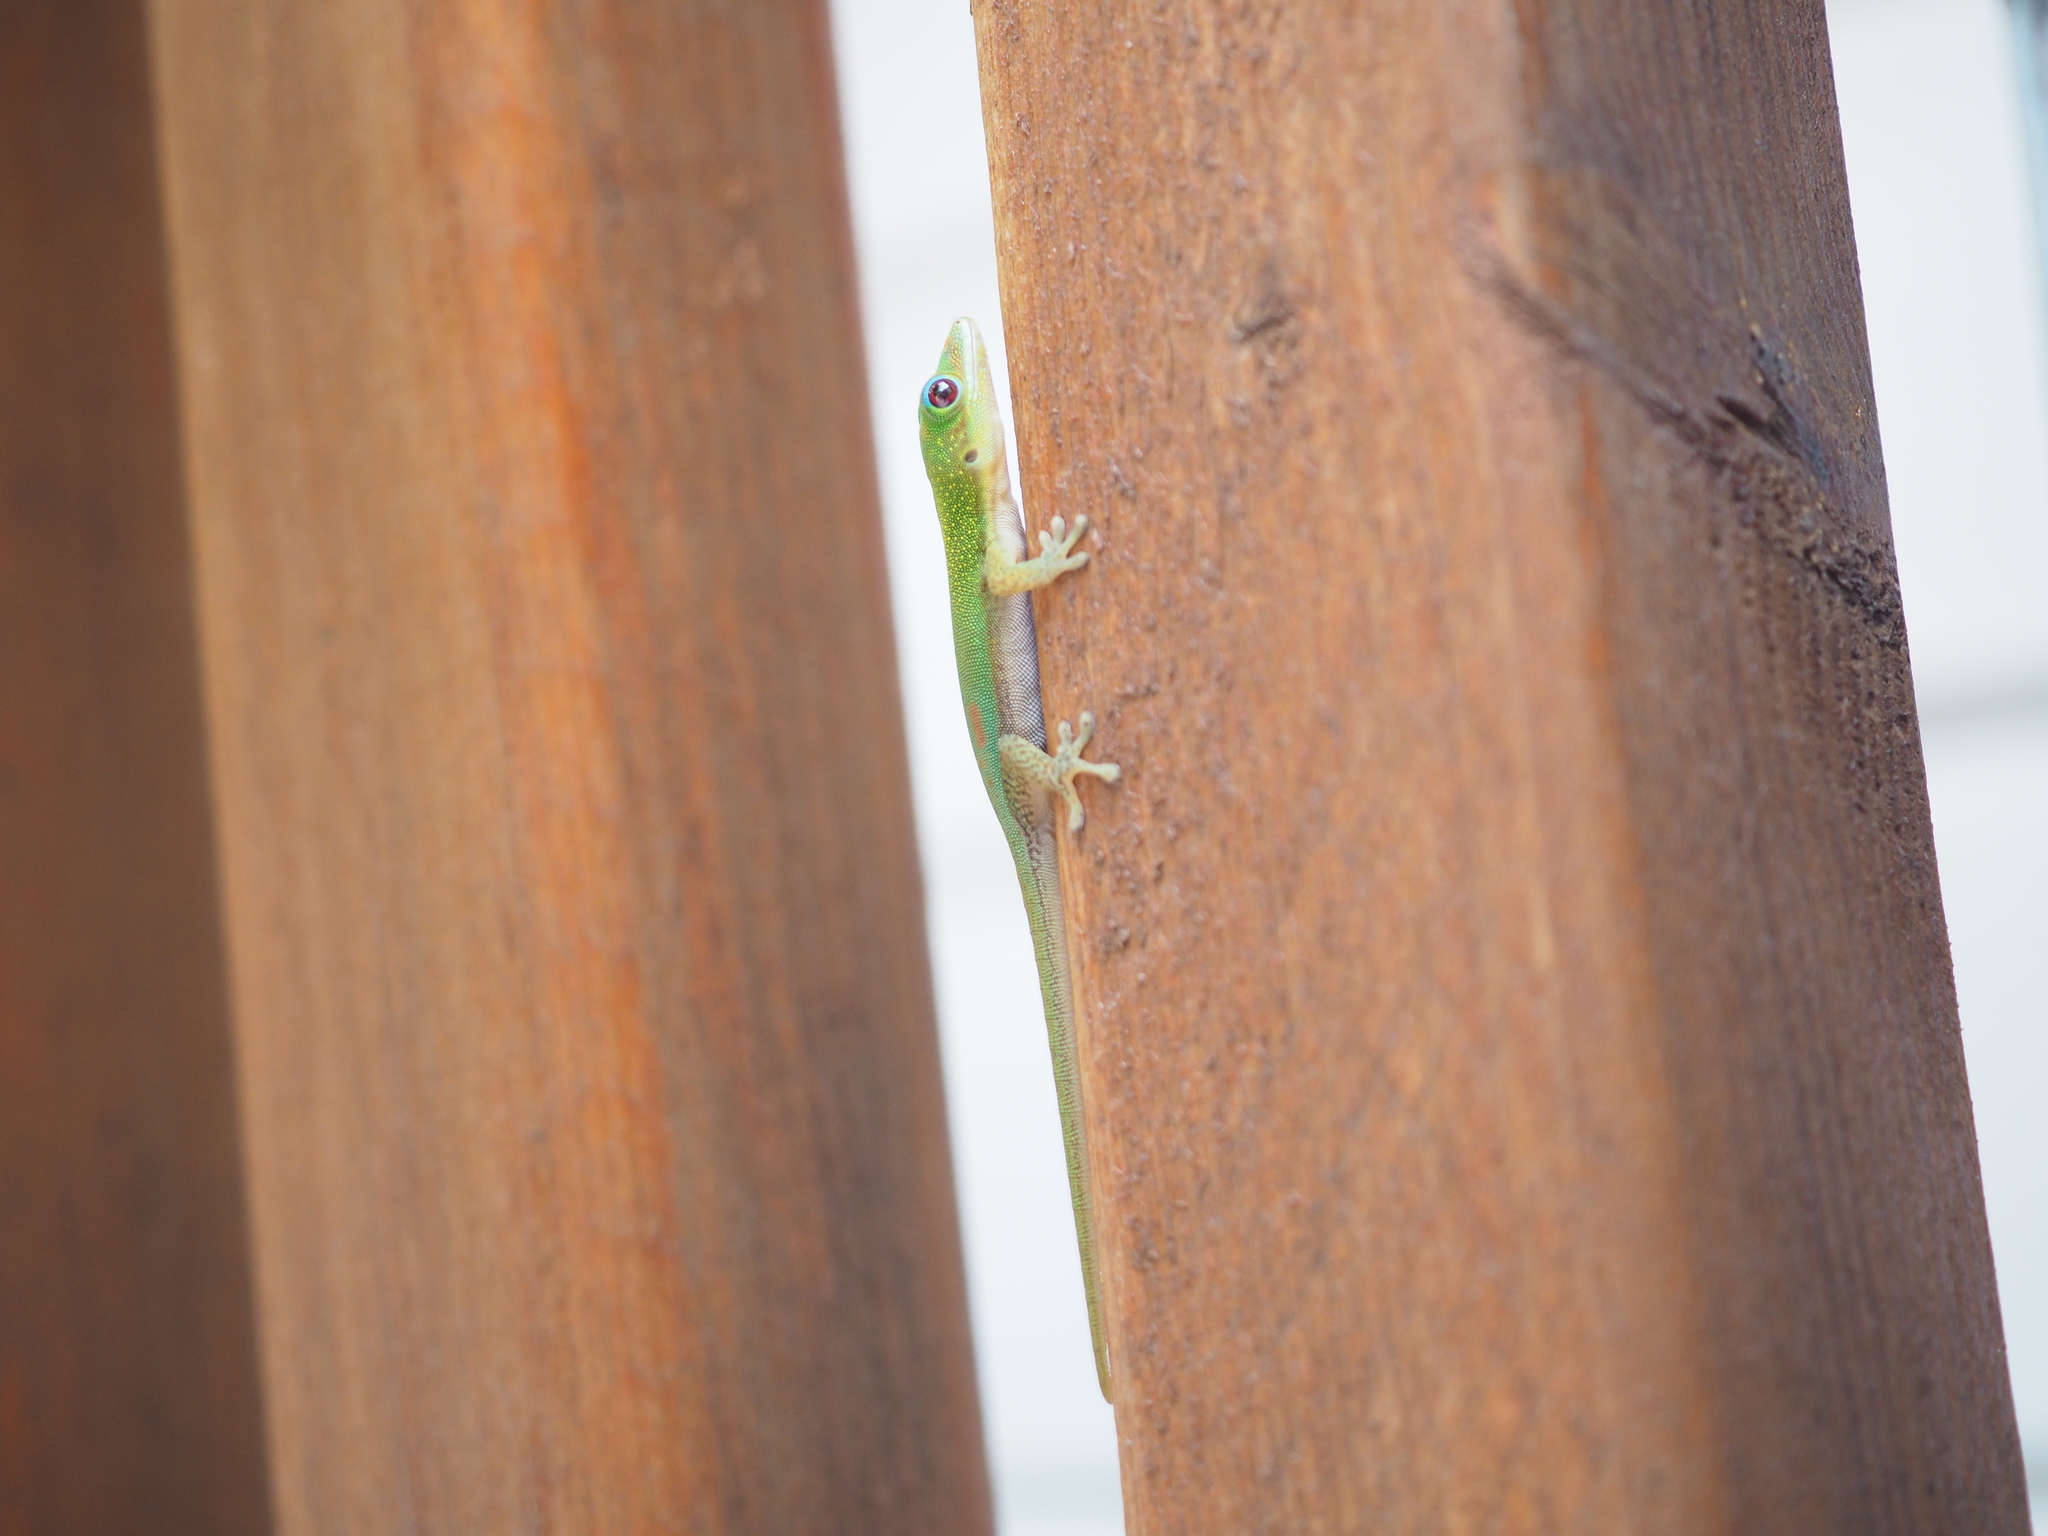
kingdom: Animalia
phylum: Chordata
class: Squamata
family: Gekkonidae
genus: Phelsuma
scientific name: Phelsuma laticauda
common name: Gold dust day gecko
